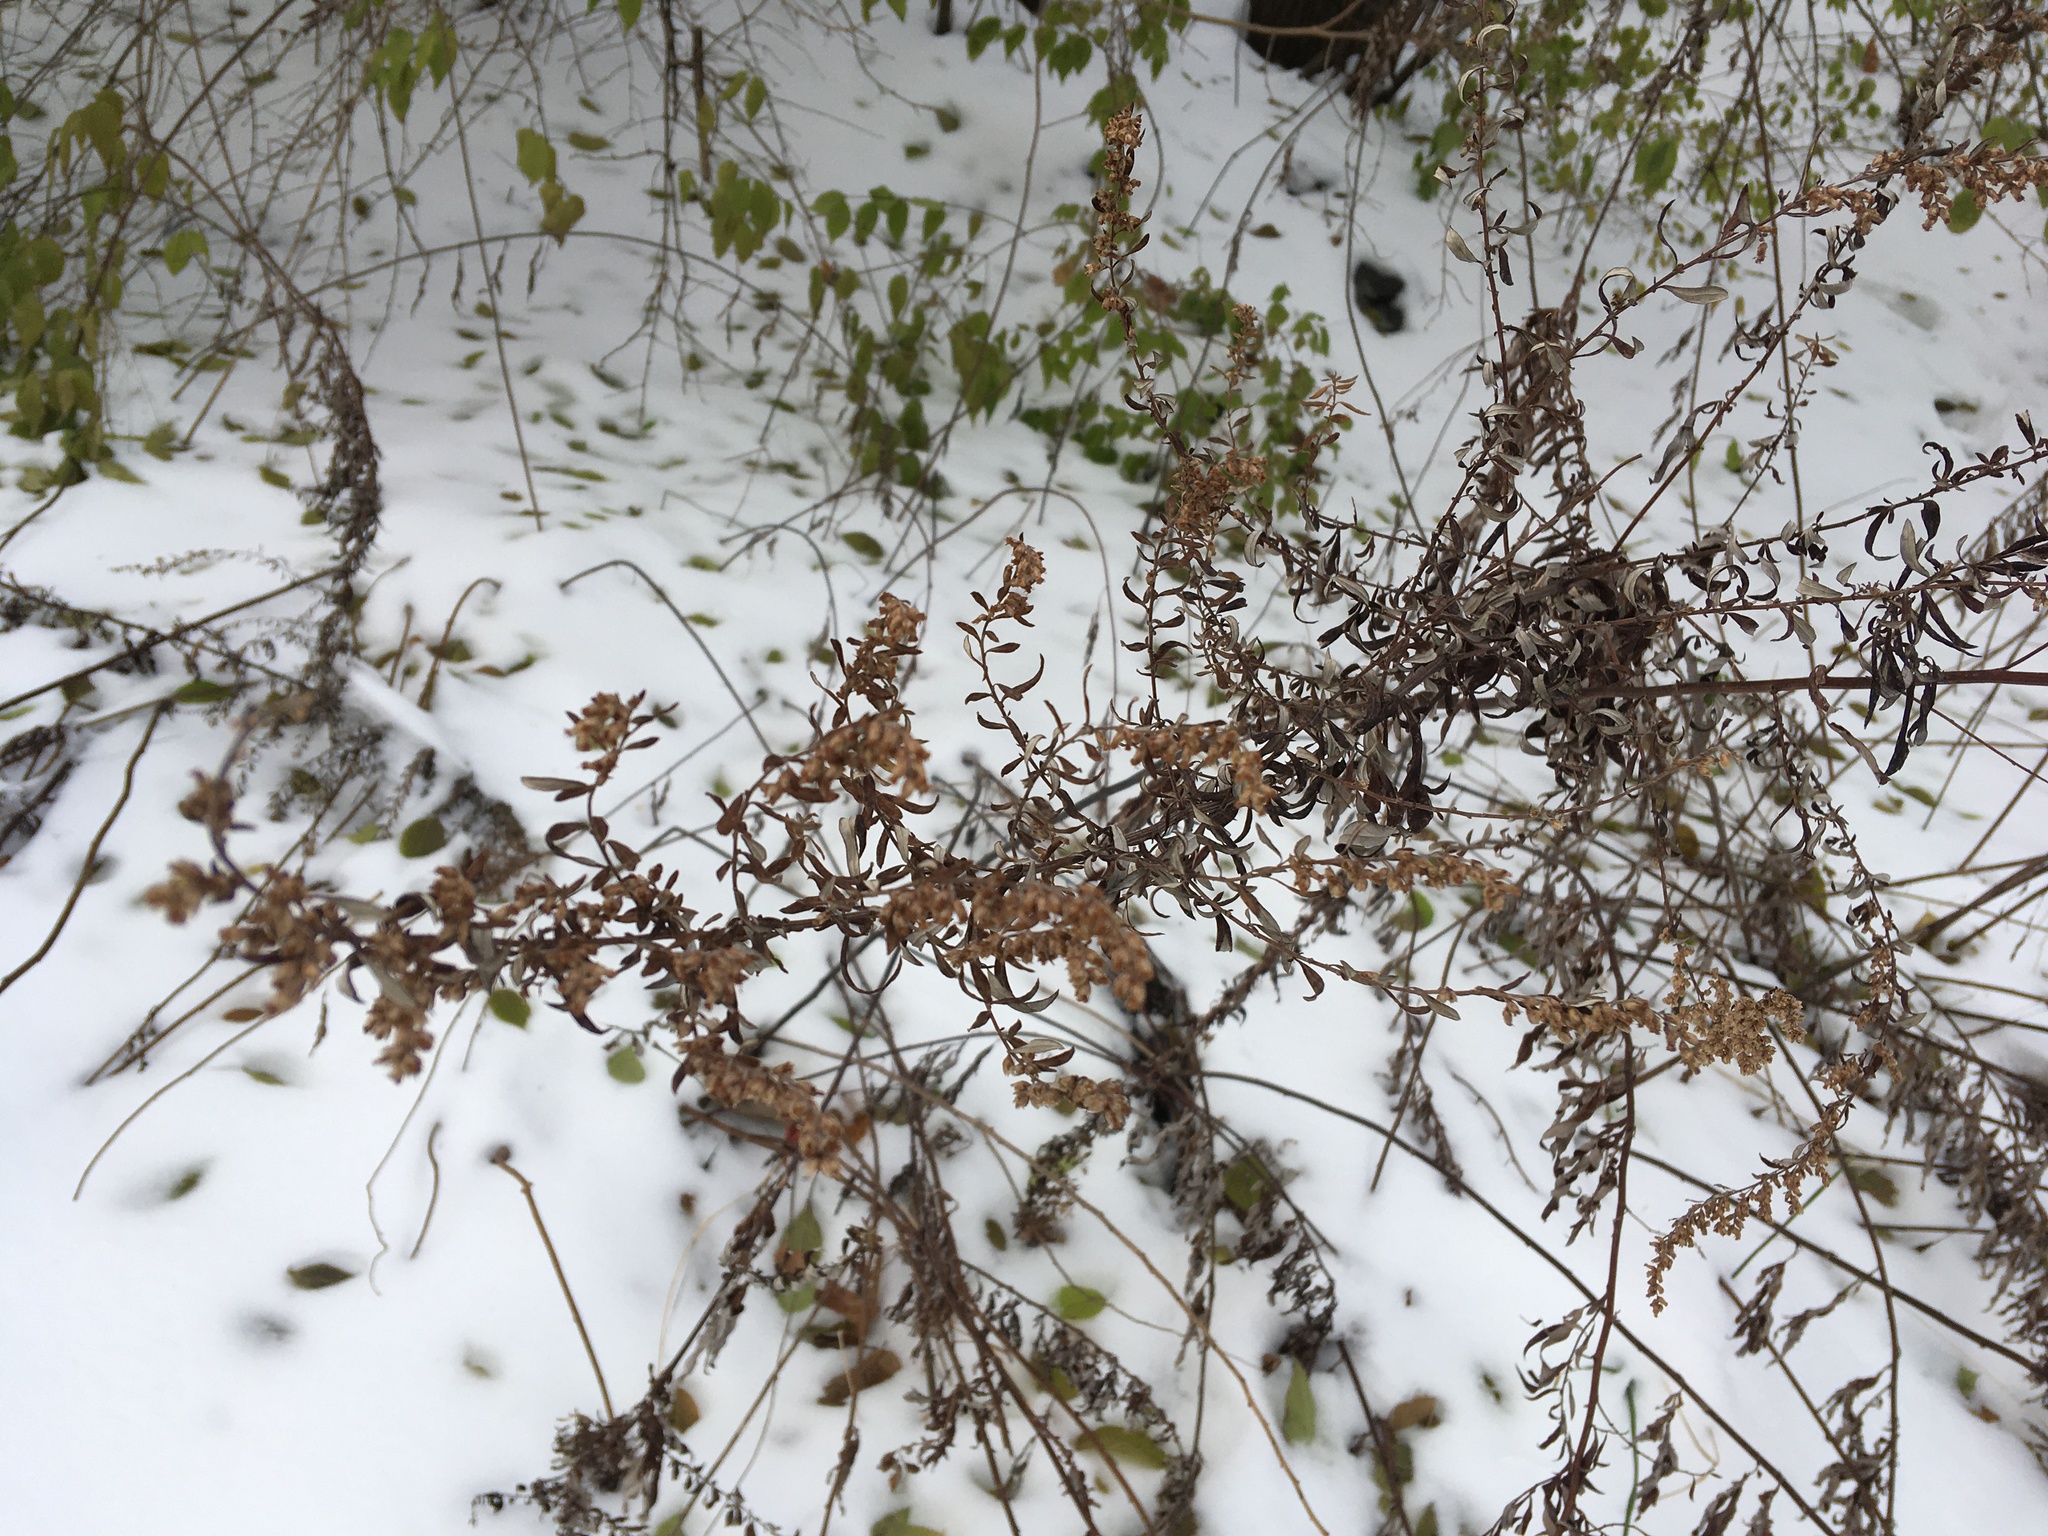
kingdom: Plantae
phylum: Tracheophyta
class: Magnoliopsida
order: Asterales
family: Asteraceae
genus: Artemisia
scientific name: Artemisia vulgaris
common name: Mugwort
